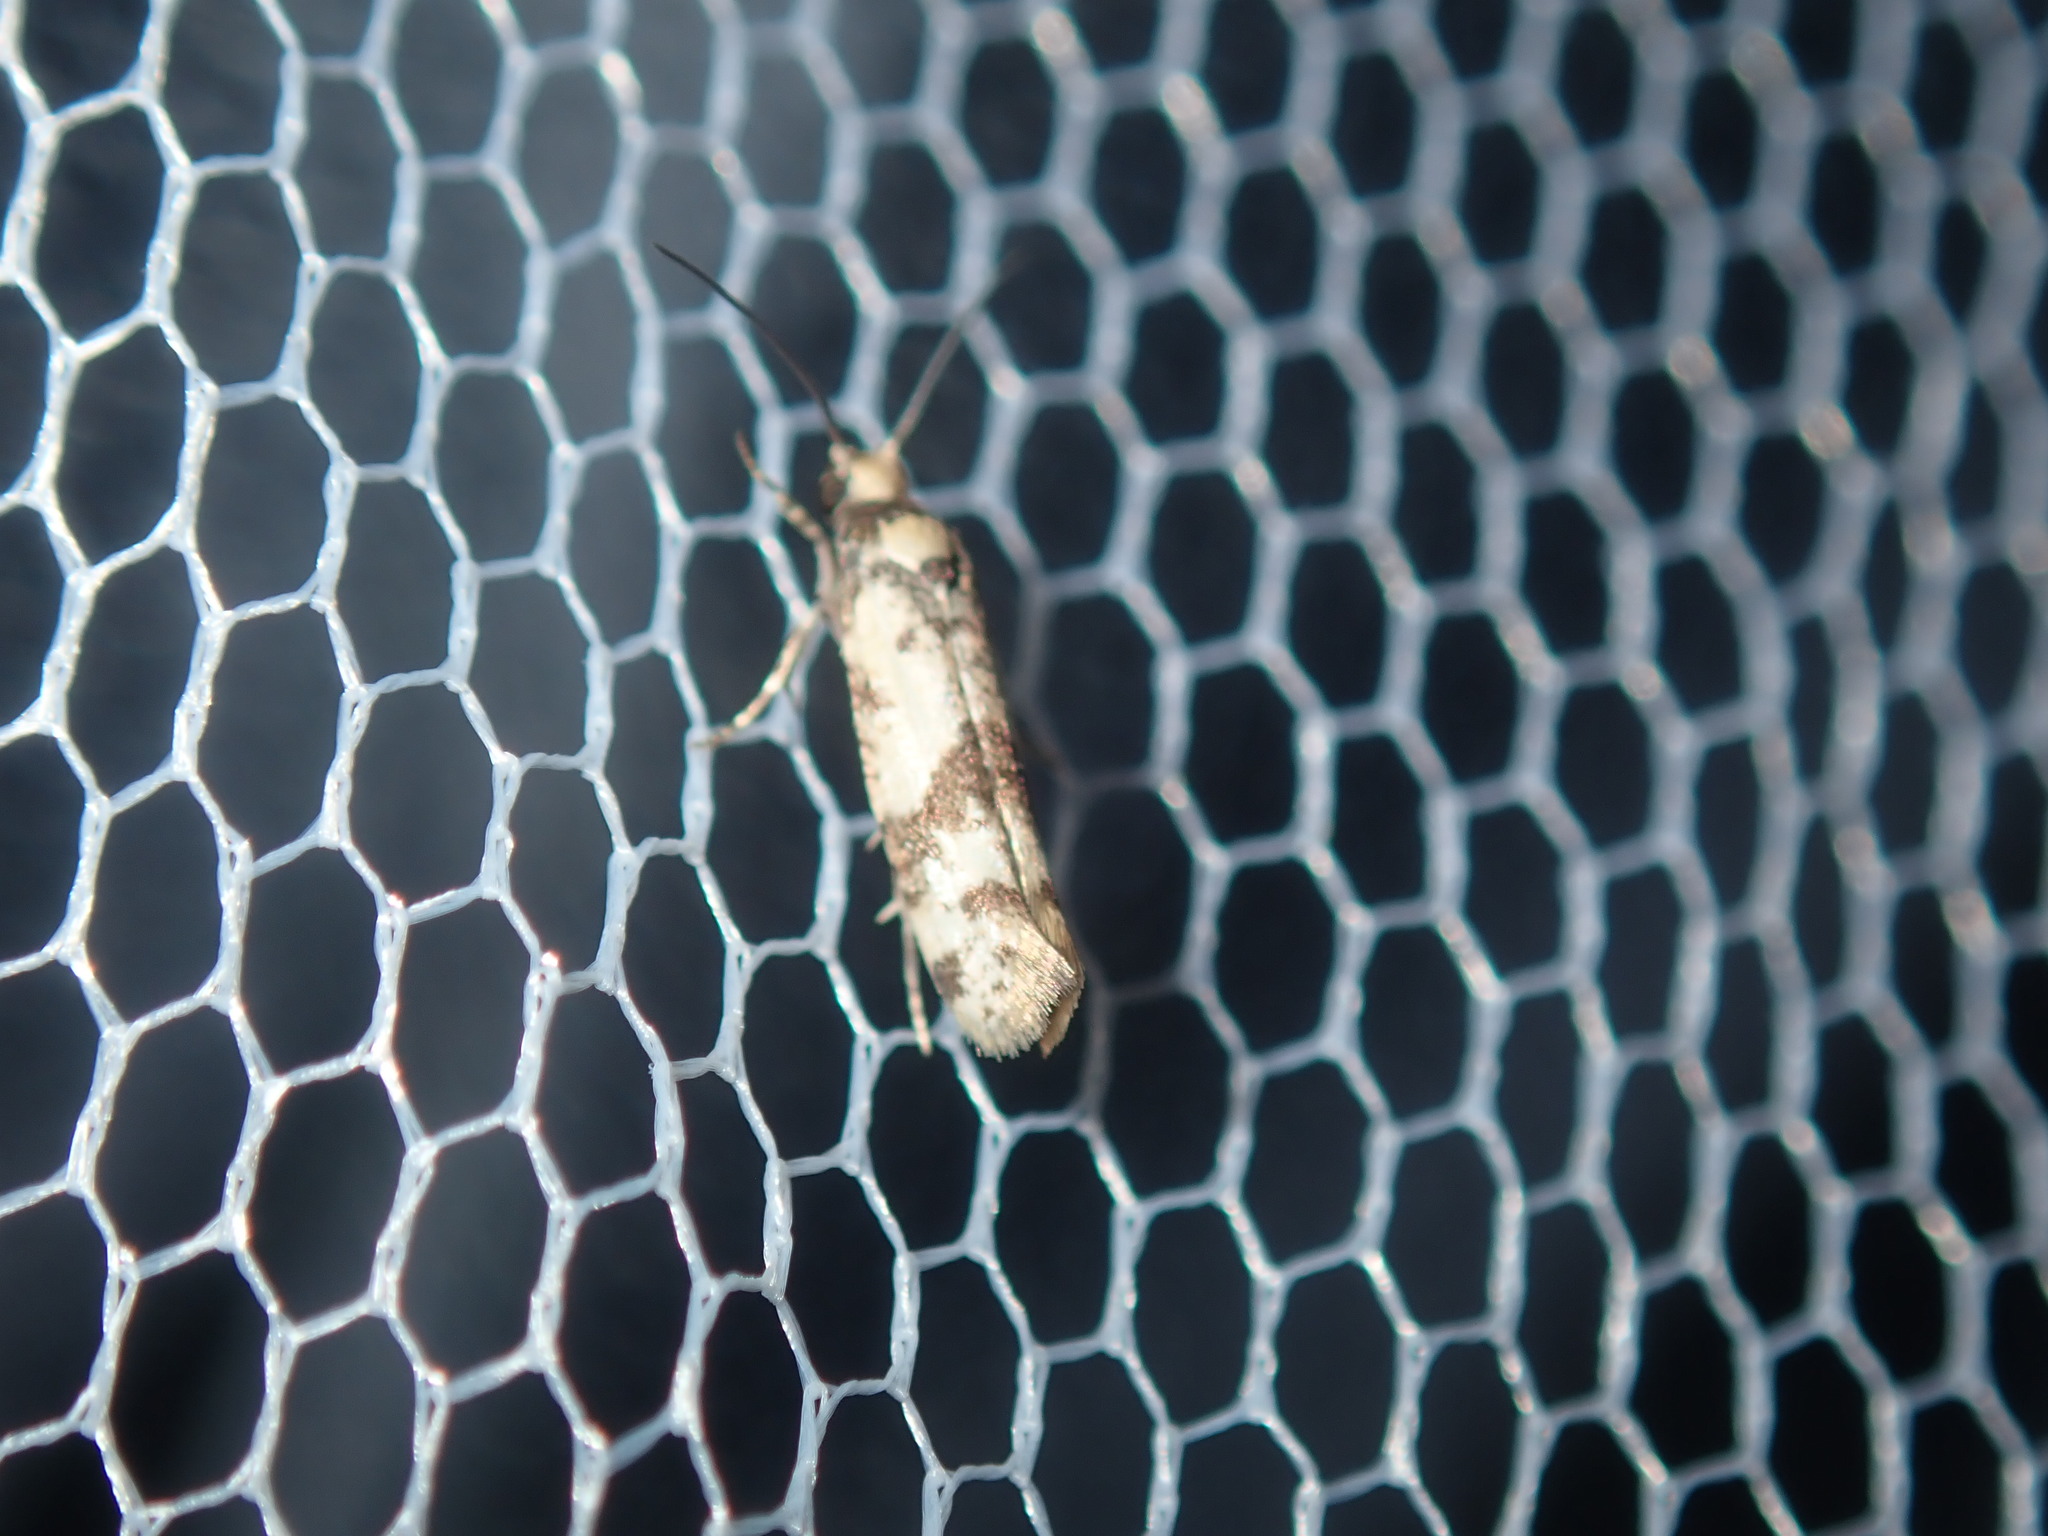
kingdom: Animalia
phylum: Arthropoda
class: Insecta
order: Lepidoptera
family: Praydidae
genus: Prays
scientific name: Prays parilis
